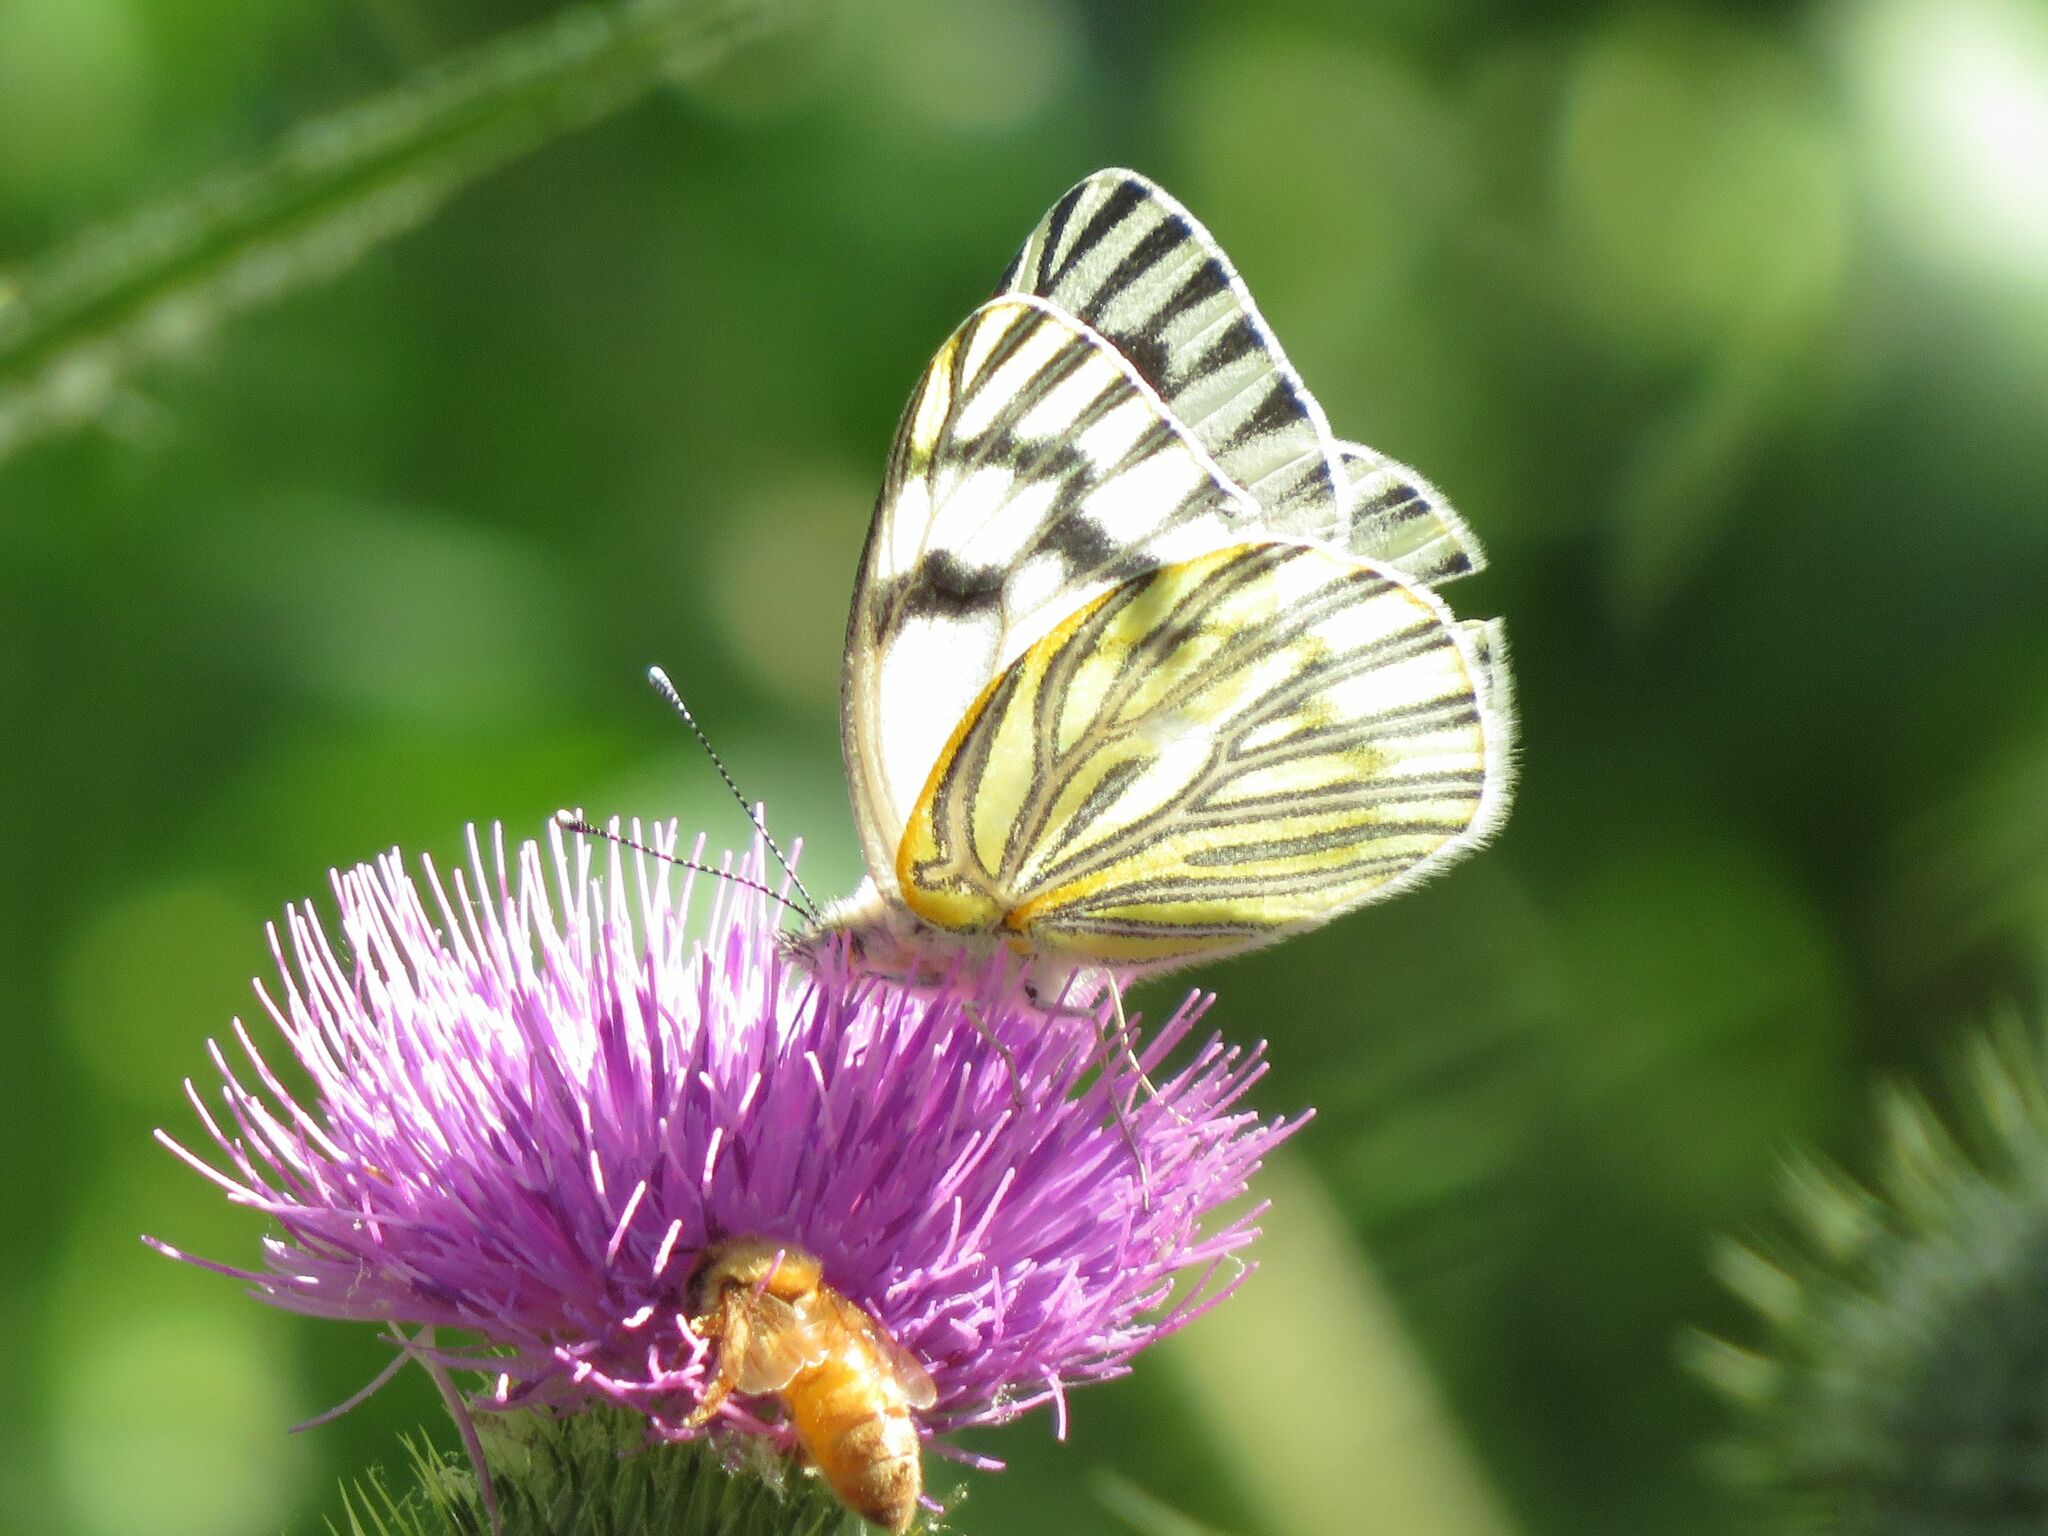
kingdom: Animalia
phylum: Arthropoda
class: Insecta
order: Lepidoptera
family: Pieridae
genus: Tatochila
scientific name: Tatochila mercedis
